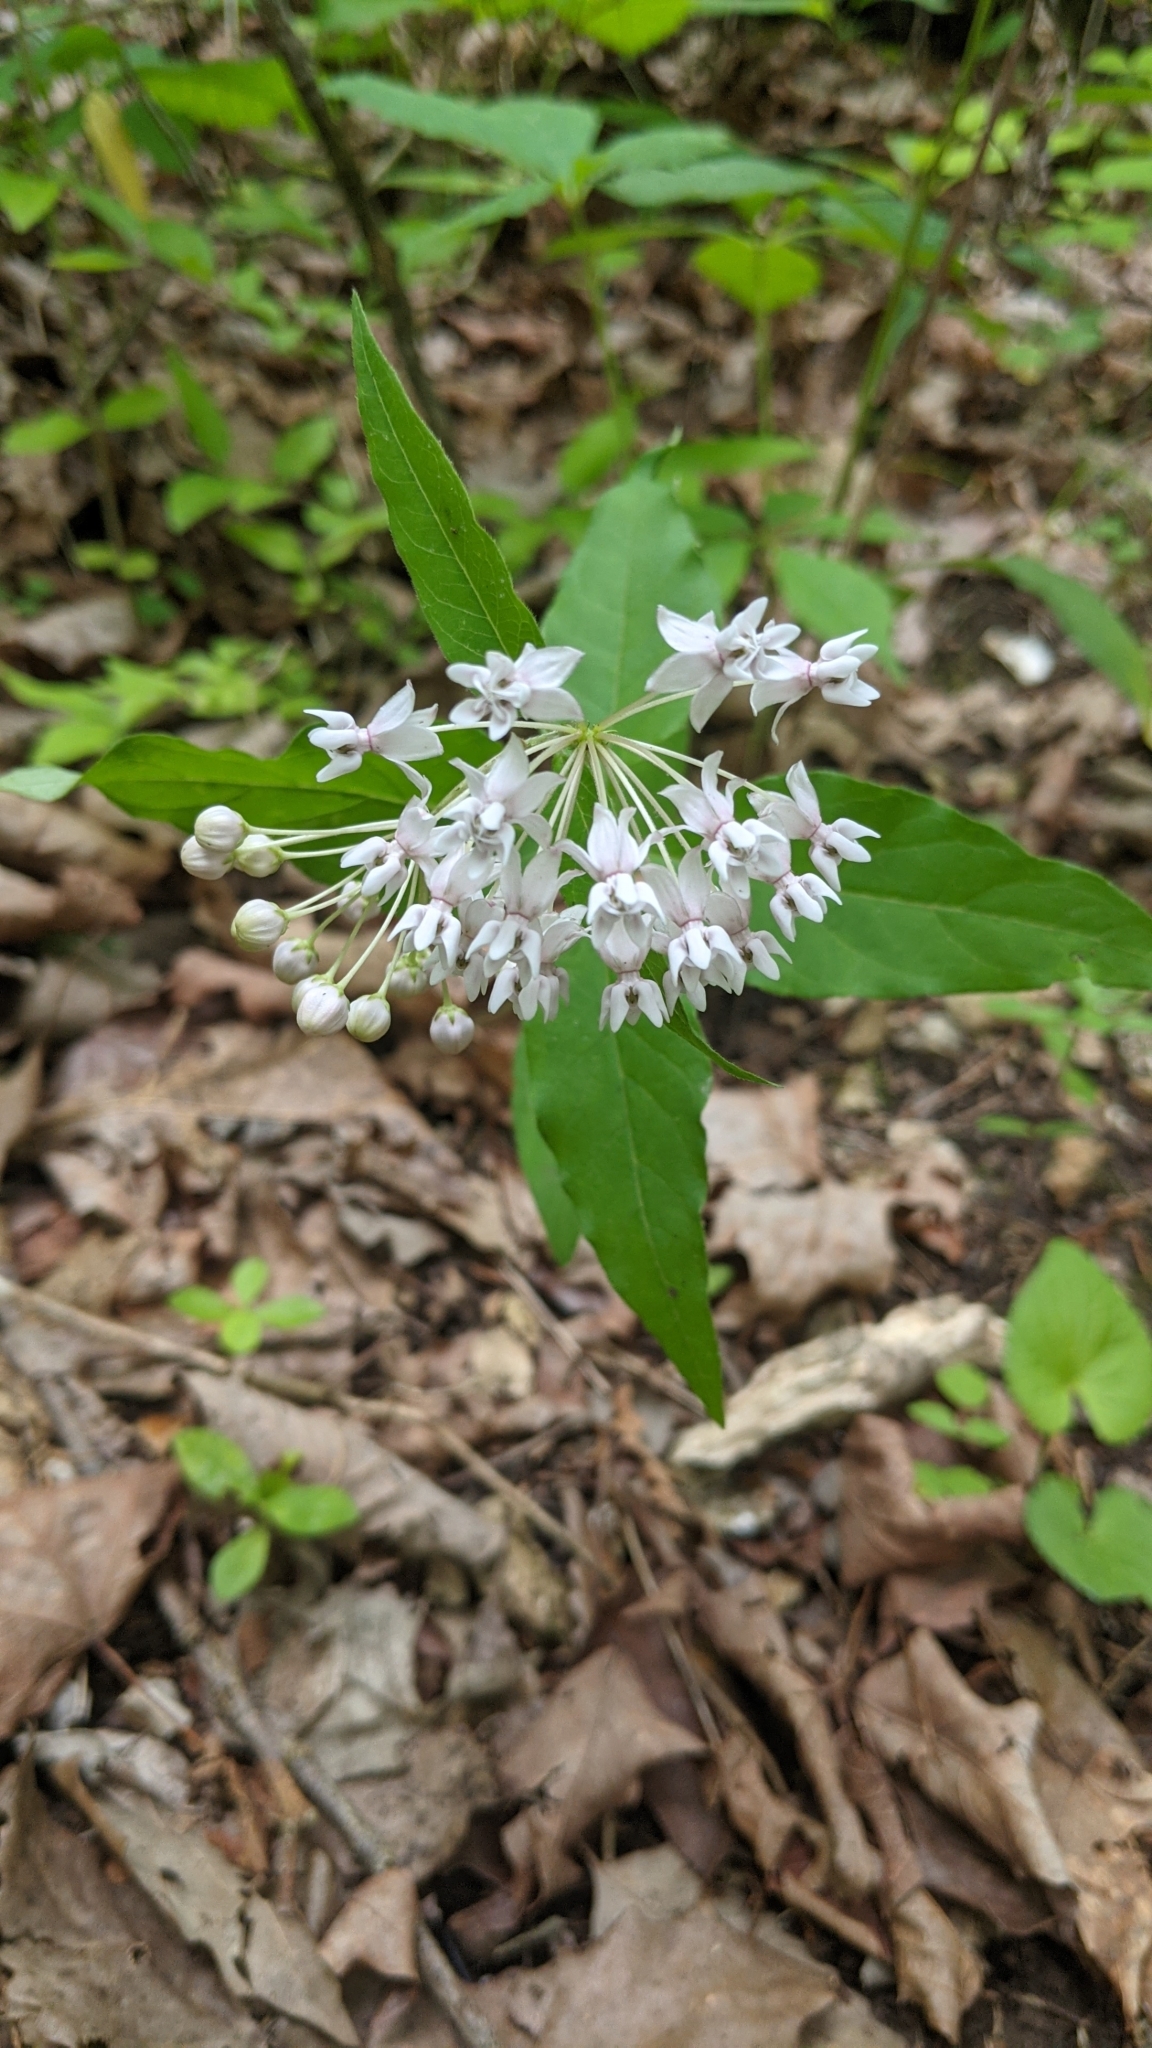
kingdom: Plantae
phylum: Tracheophyta
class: Magnoliopsida
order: Gentianales
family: Apocynaceae
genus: Asclepias
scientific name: Asclepias quadrifolia
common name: Whorled milkweed
